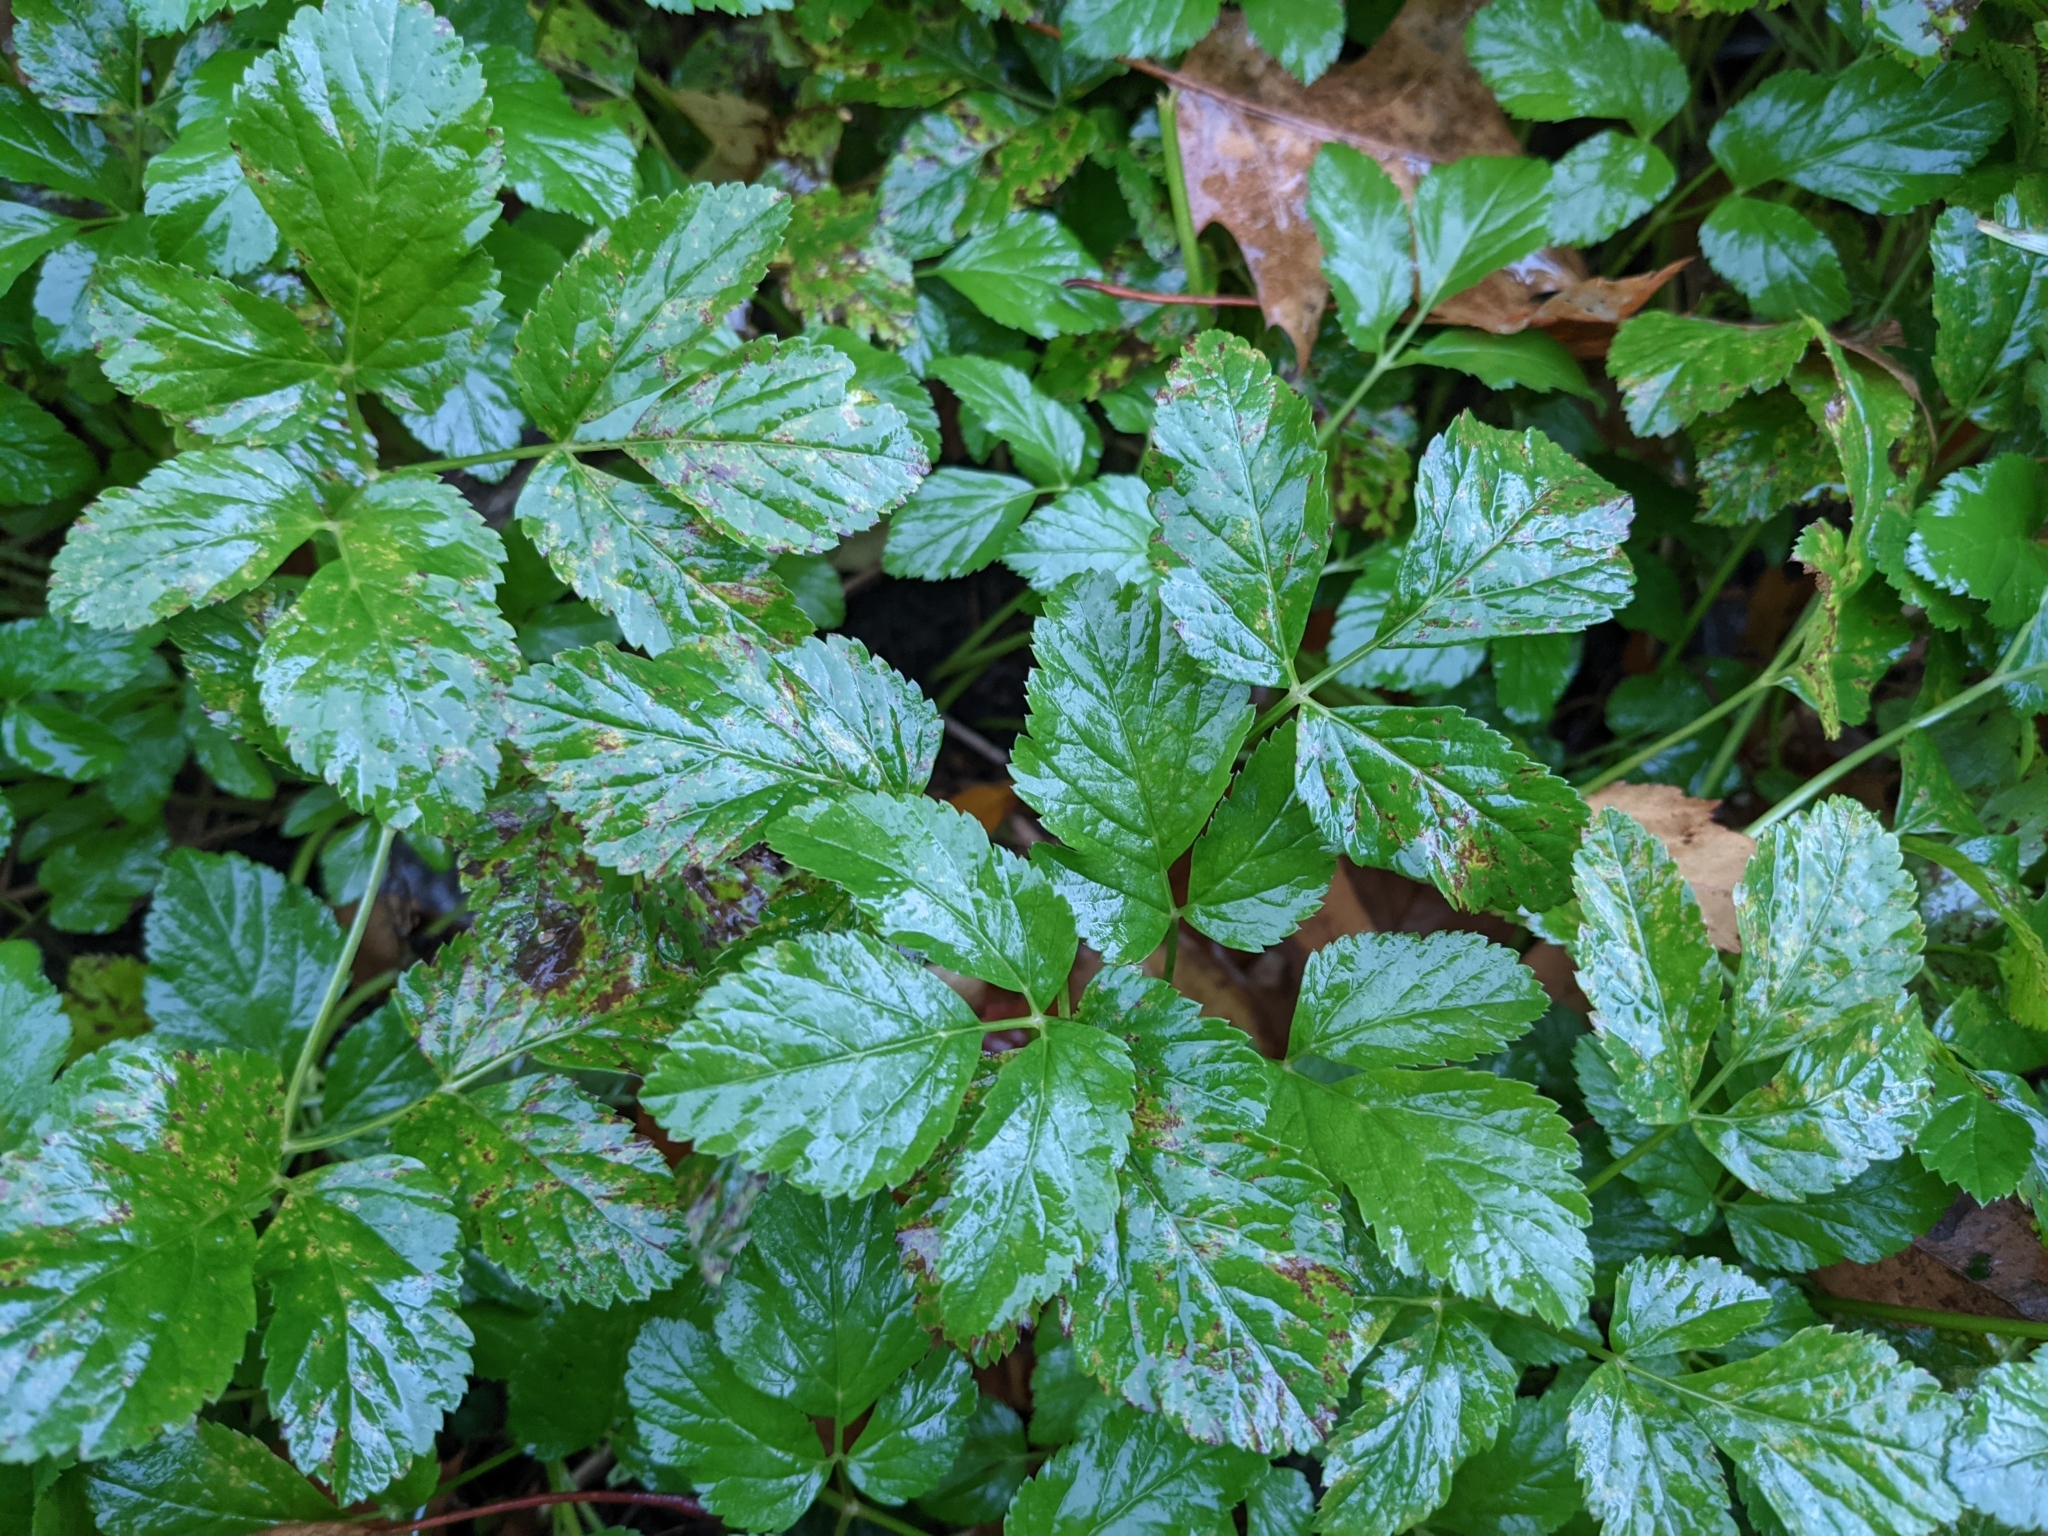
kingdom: Plantae
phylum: Tracheophyta
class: Magnoliopsida
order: Apiales
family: Apiaceae
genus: Aegopodium
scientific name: Aegopodium podagraria
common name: Ground-elder
